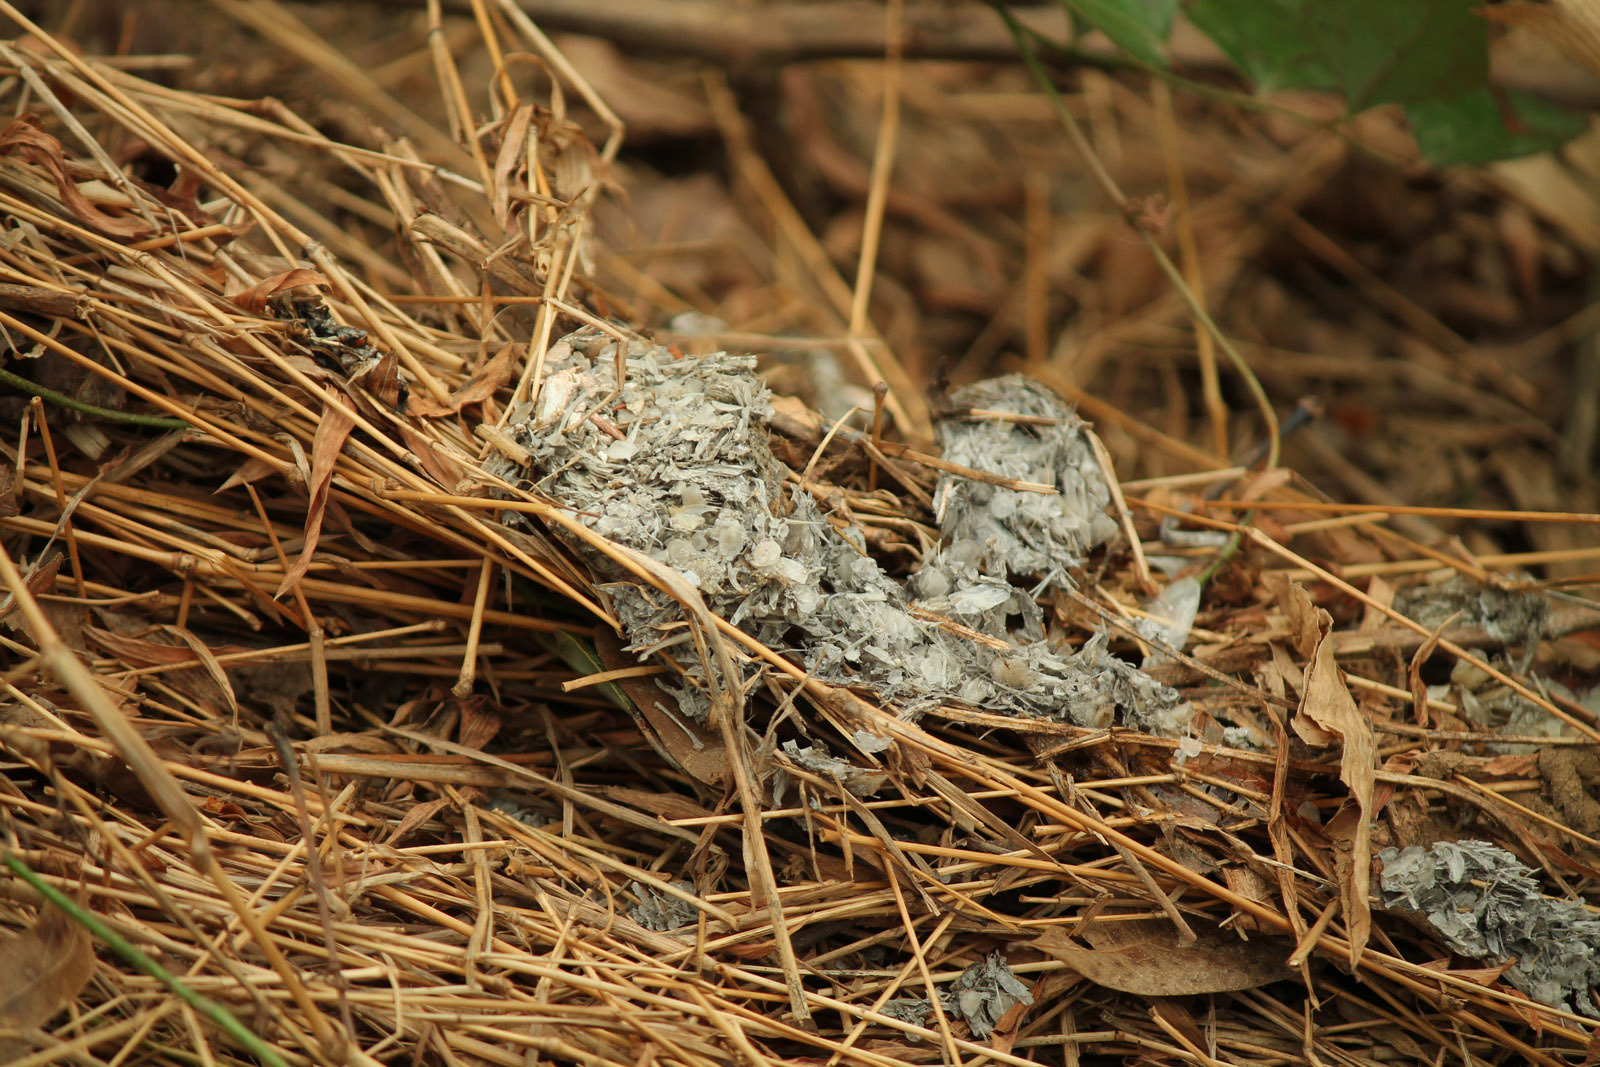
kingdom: Animalia
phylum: Chordata
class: Mammalia
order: Carnivora
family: Mustelidae
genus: Lontra
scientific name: Lontra canadensis
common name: North american river otter
